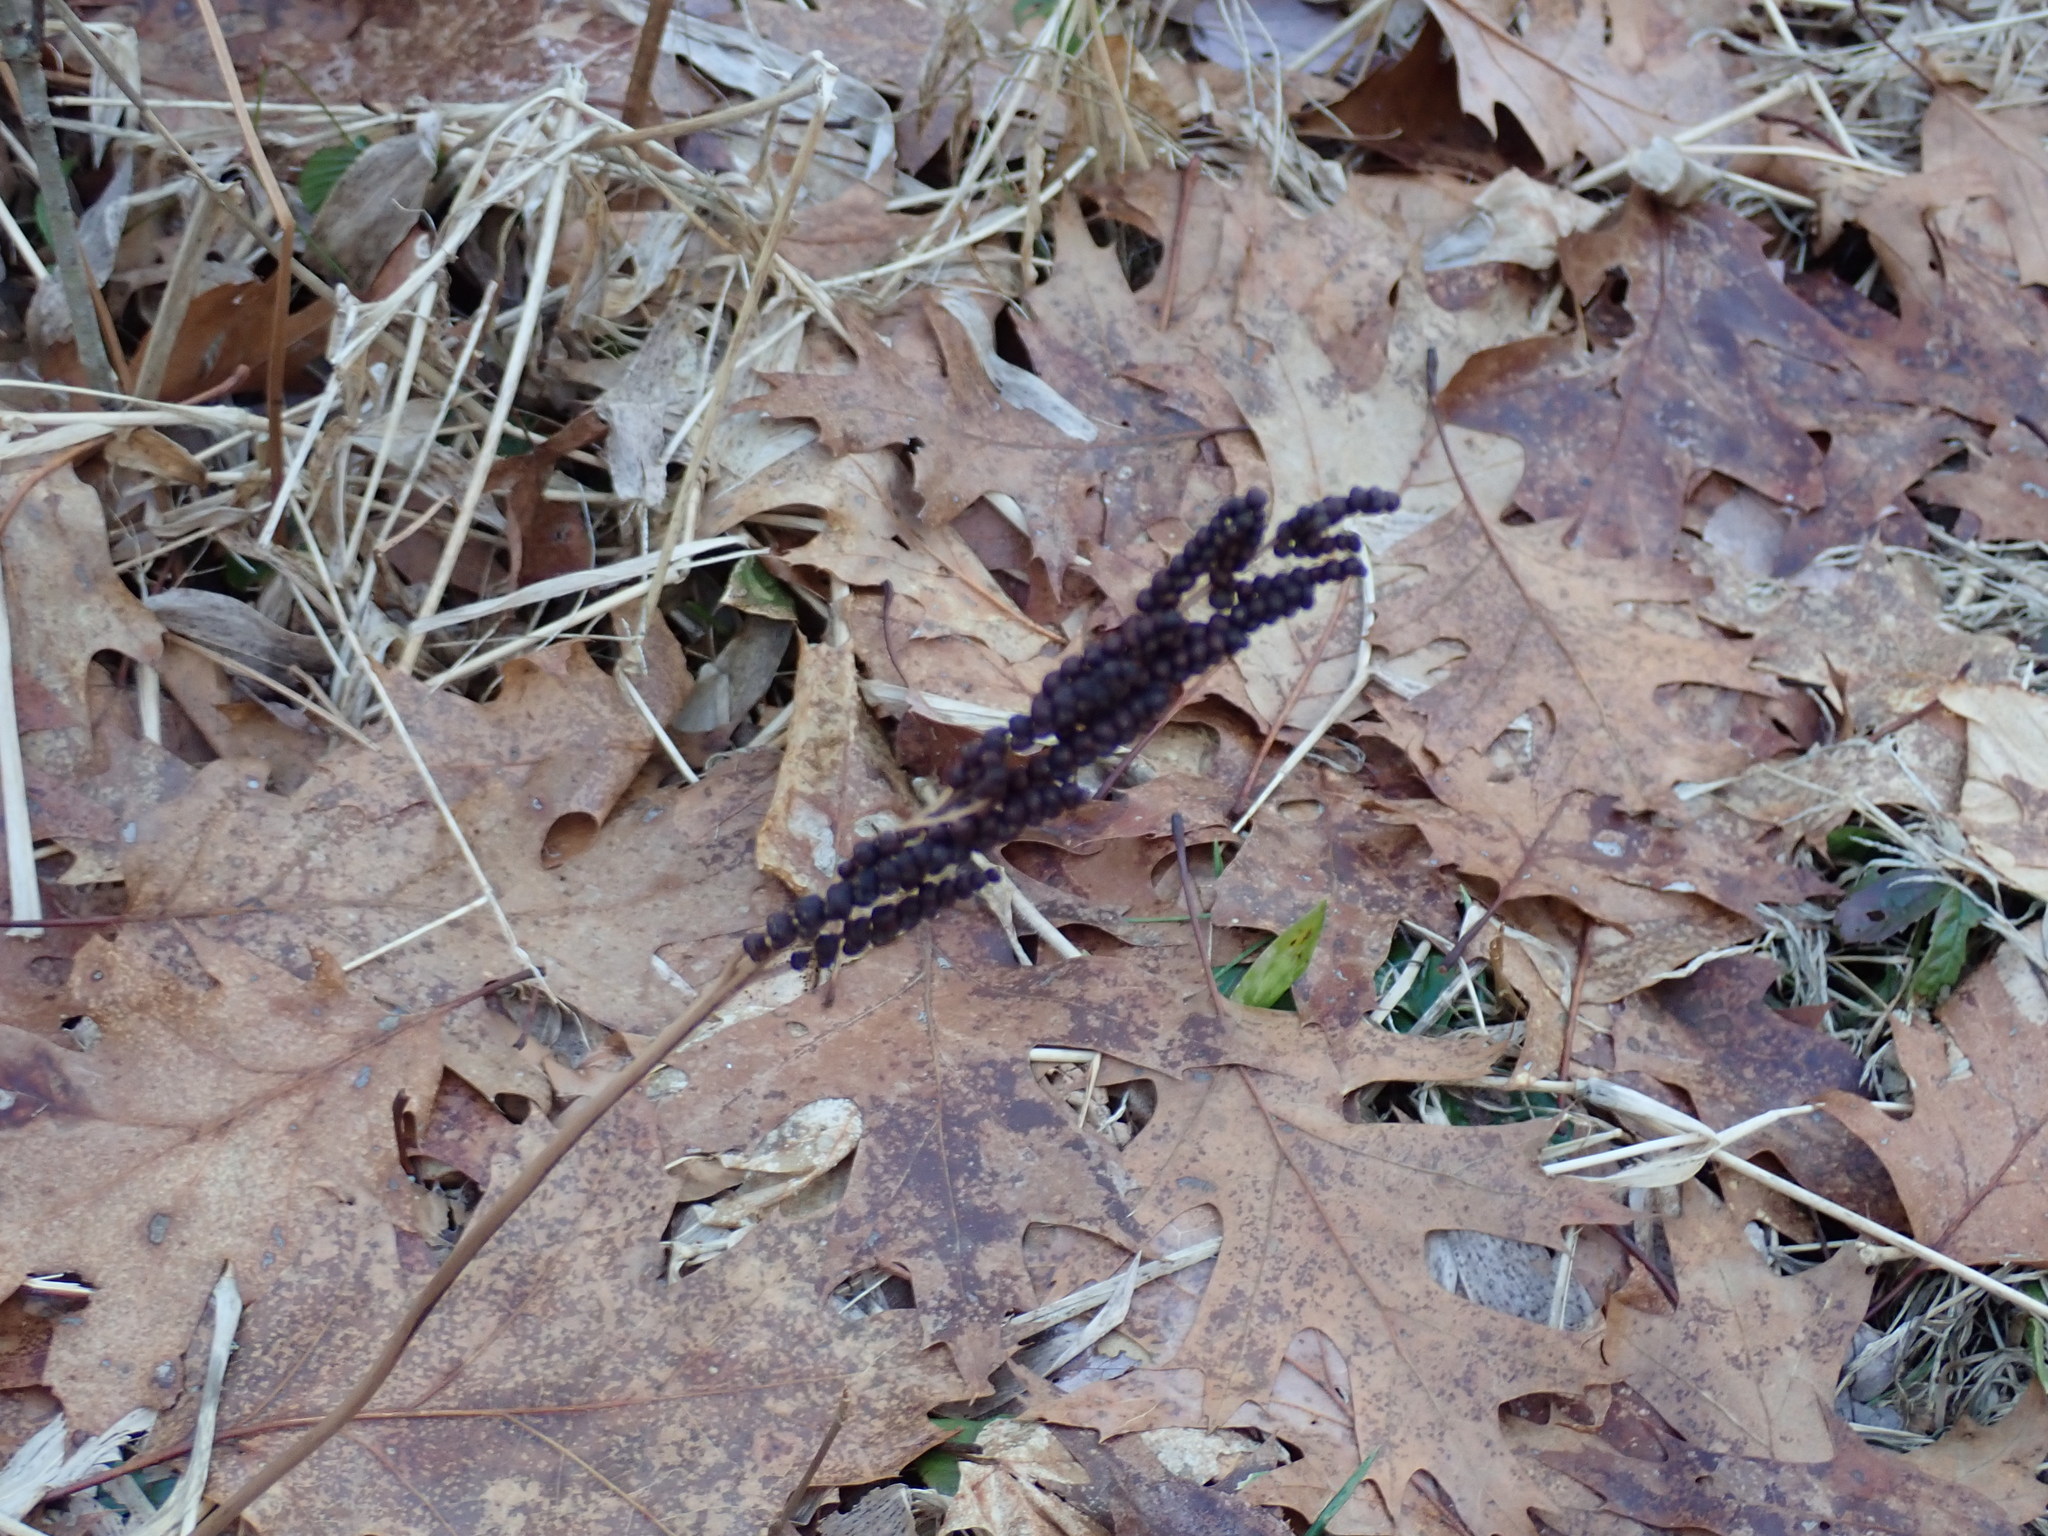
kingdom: Plantae
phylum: Tracheophyta
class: Polypodiopsida
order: Polypodiales
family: Onocleaceae
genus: Onoclea
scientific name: Onoclea sensibilis
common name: Sensitive fern
